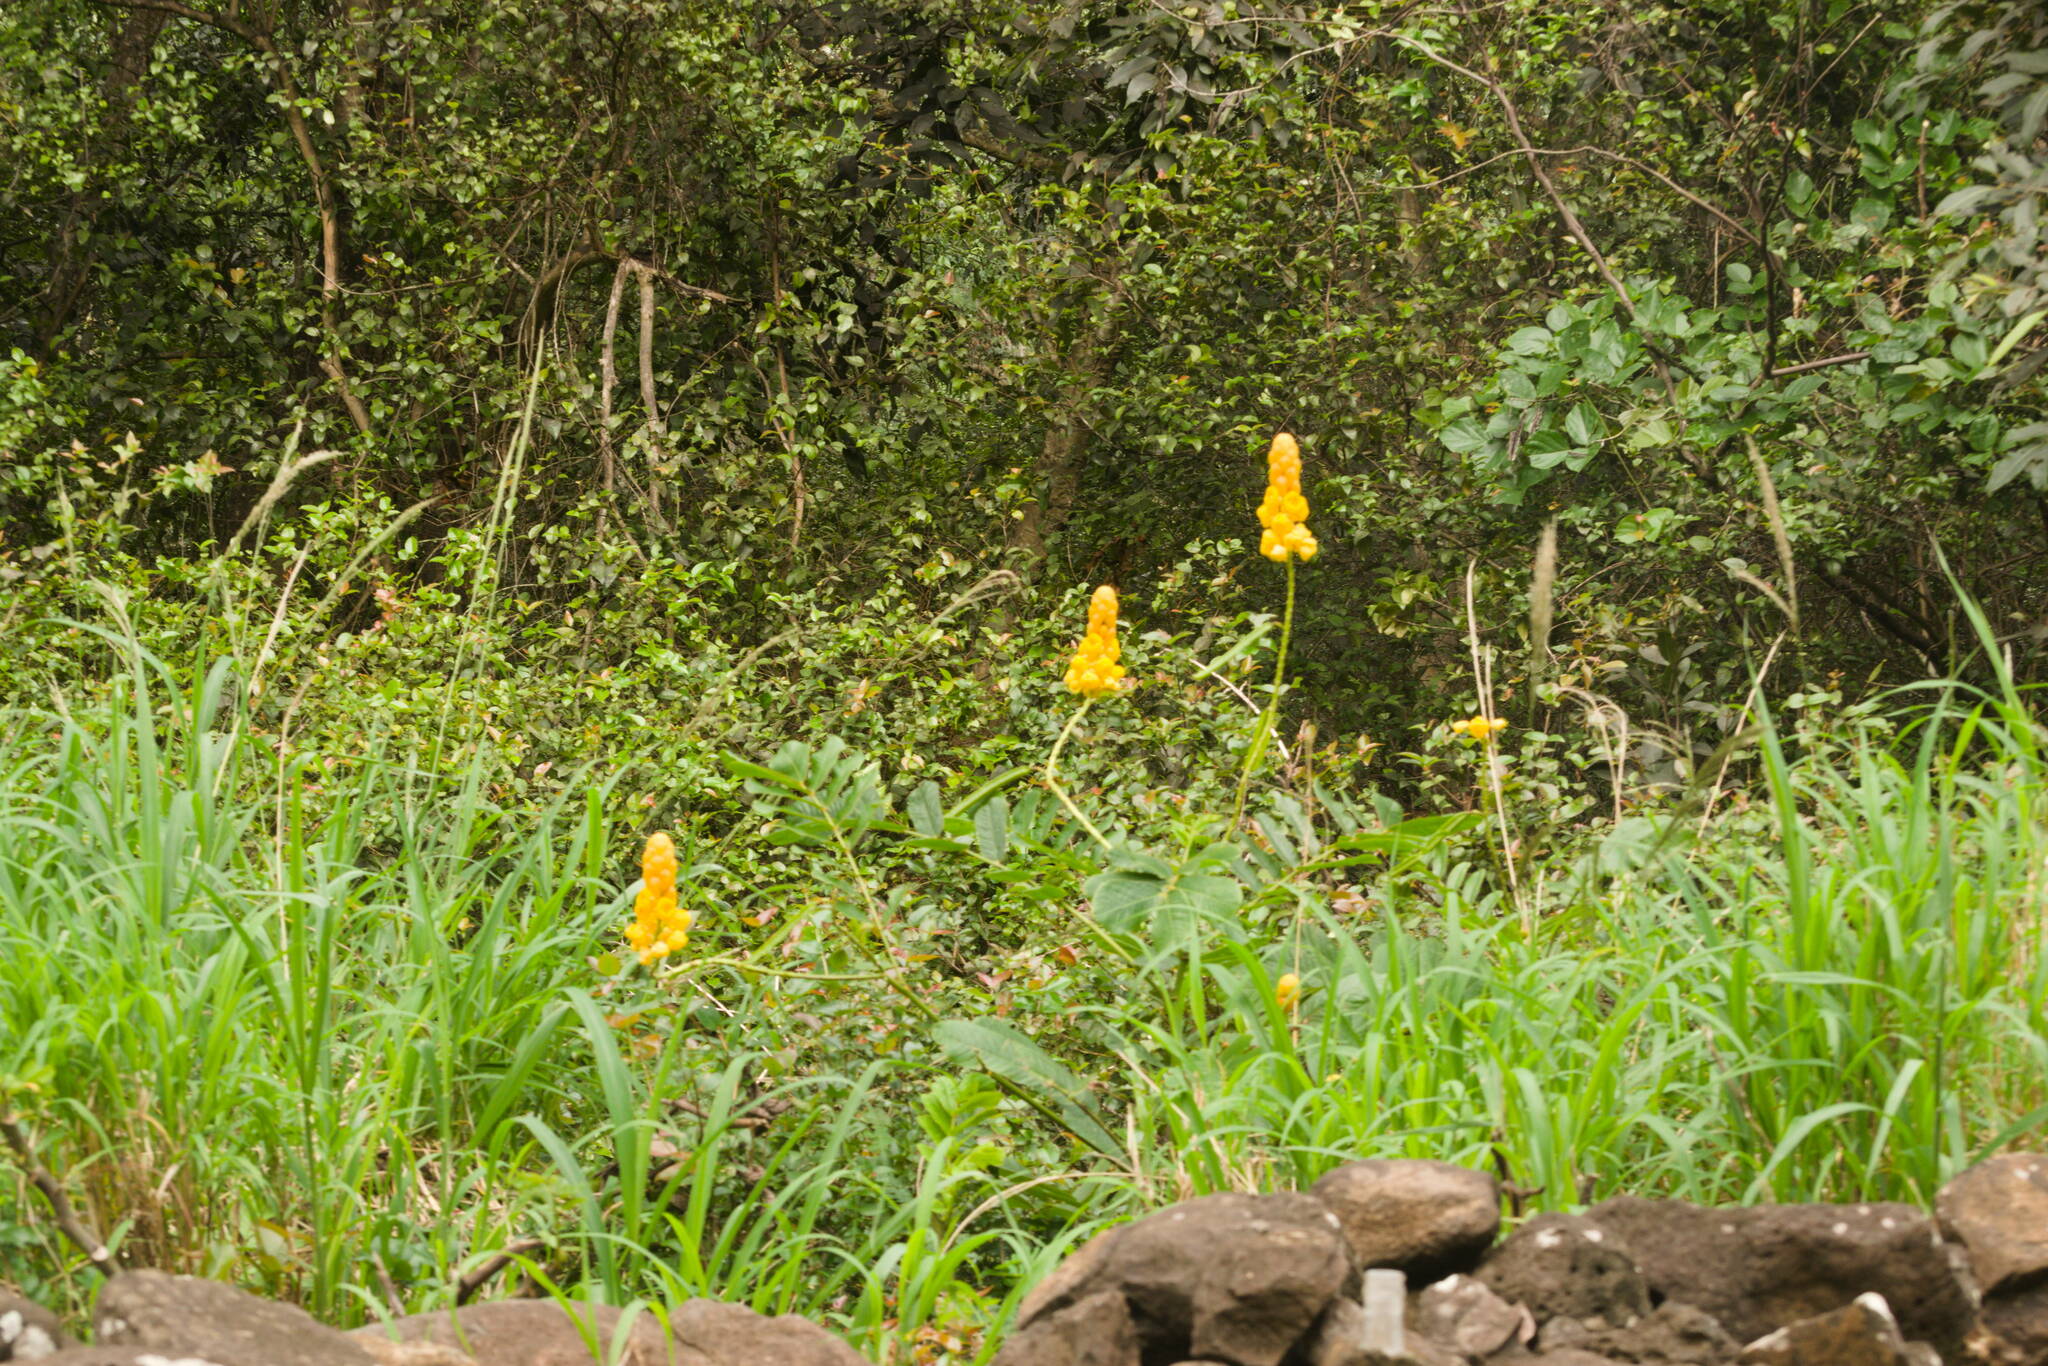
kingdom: Plantae
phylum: Tracheophyta
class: Magnoliopsida
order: Fabales
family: Fabaceae
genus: Senna
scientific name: Senna alata
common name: Emperor's candlesticks
